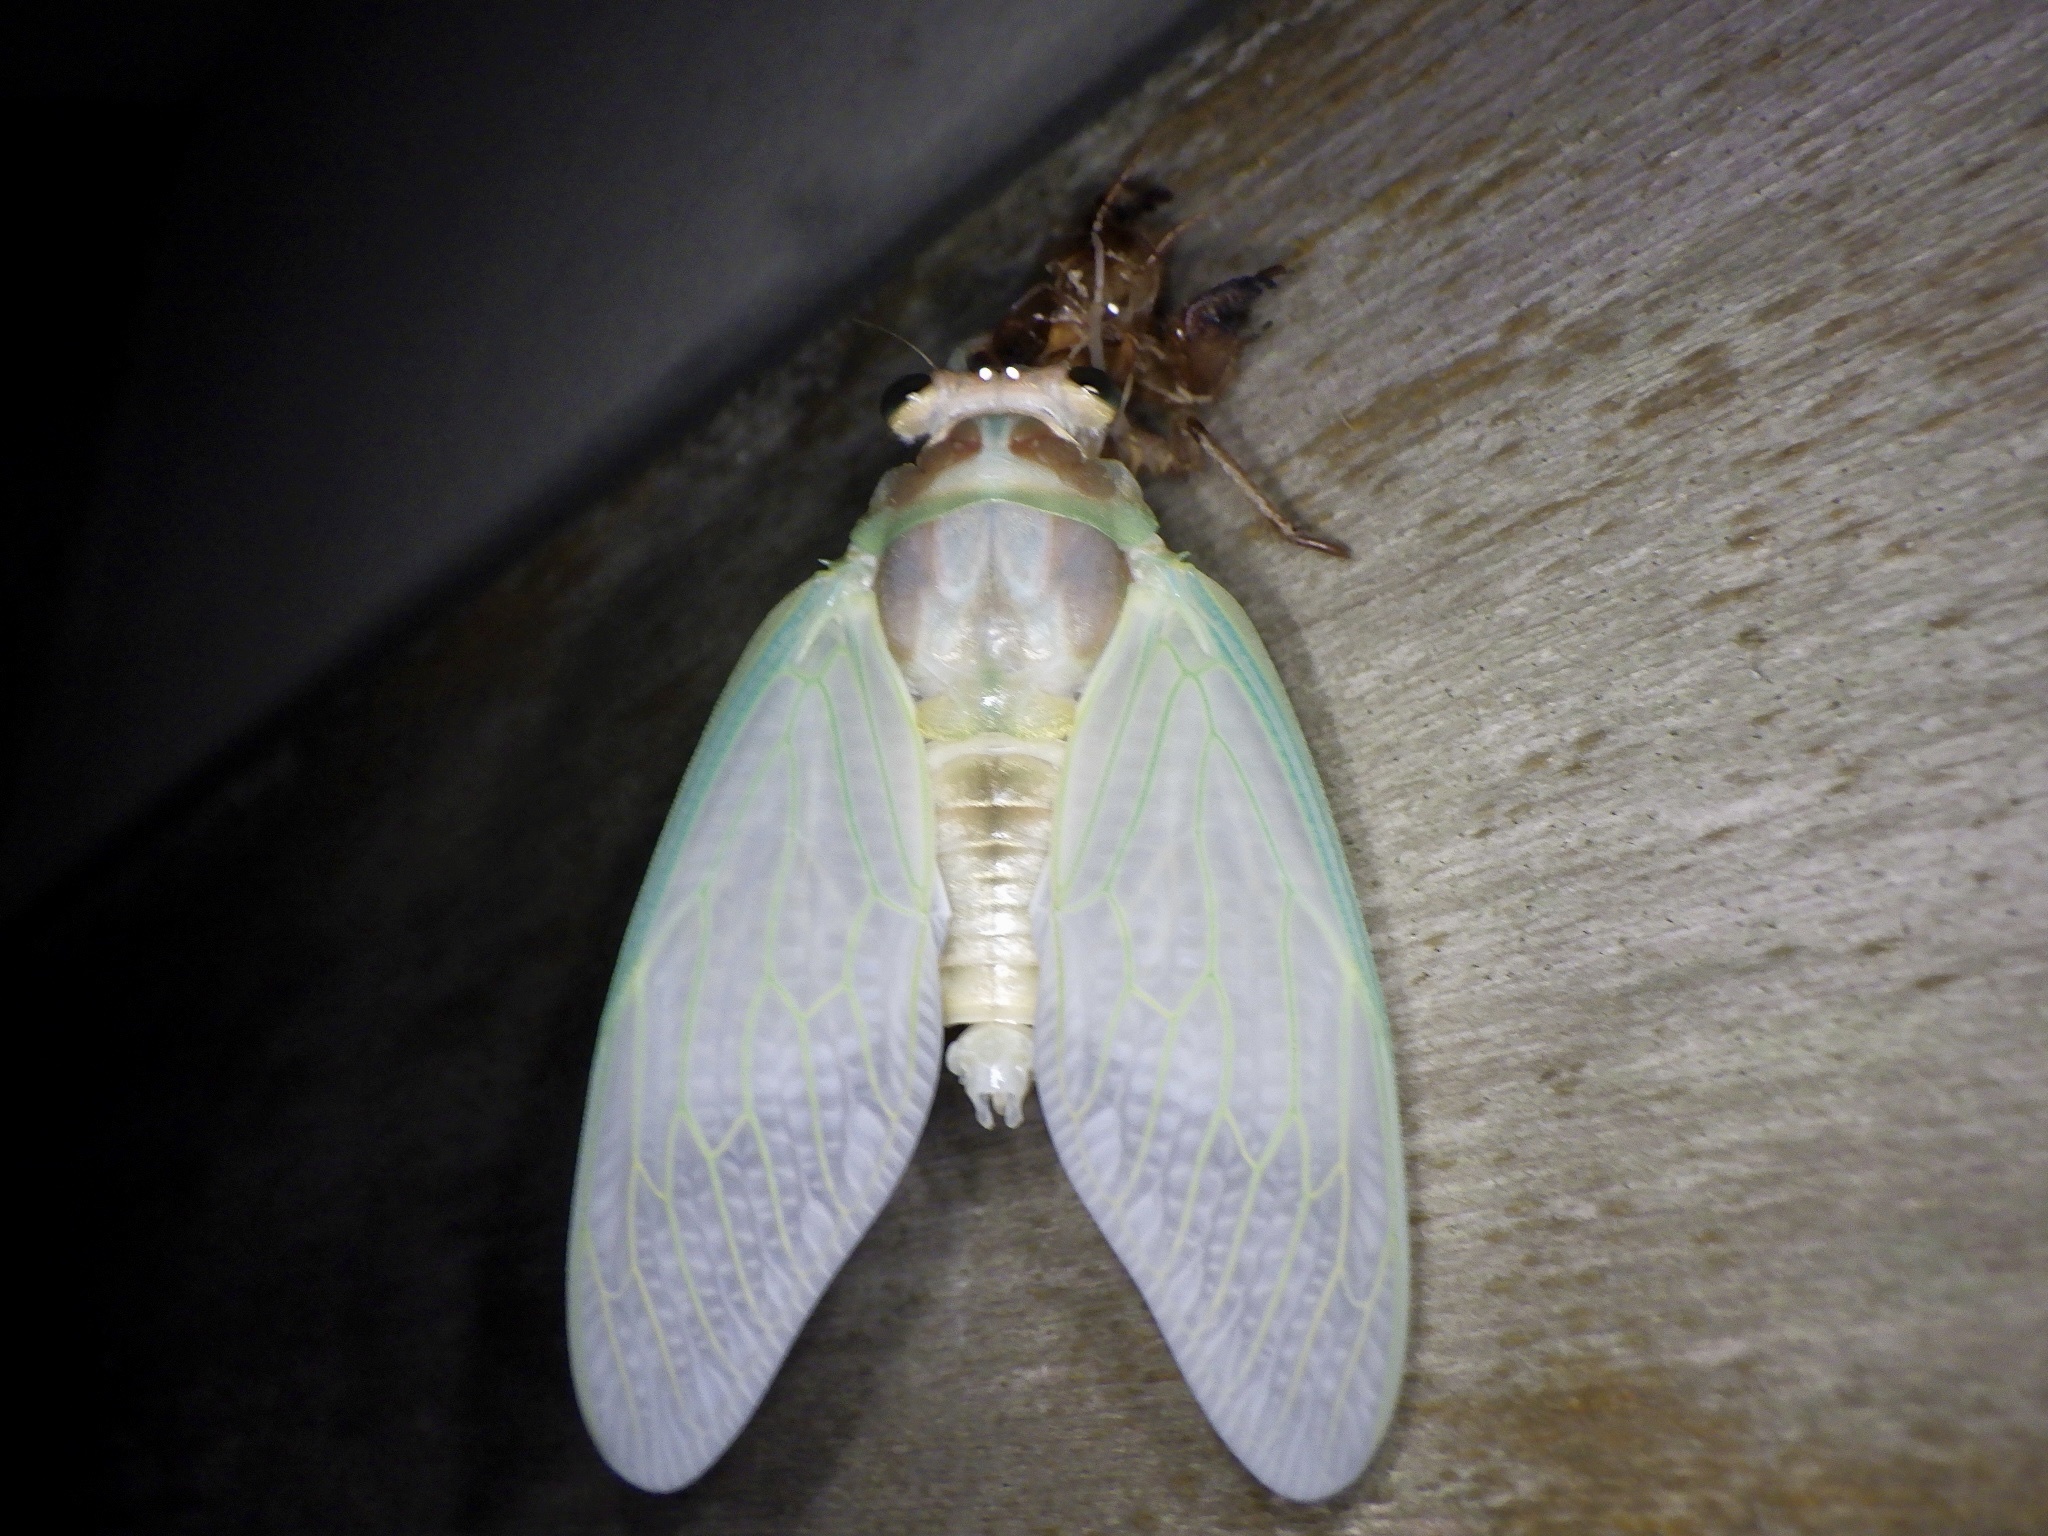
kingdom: Animalia
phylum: Arthropoda
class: Insecta
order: Hemiptera
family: Cicadidae
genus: Graptopsaltria
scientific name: Graptopsaltria nigrofuscata
